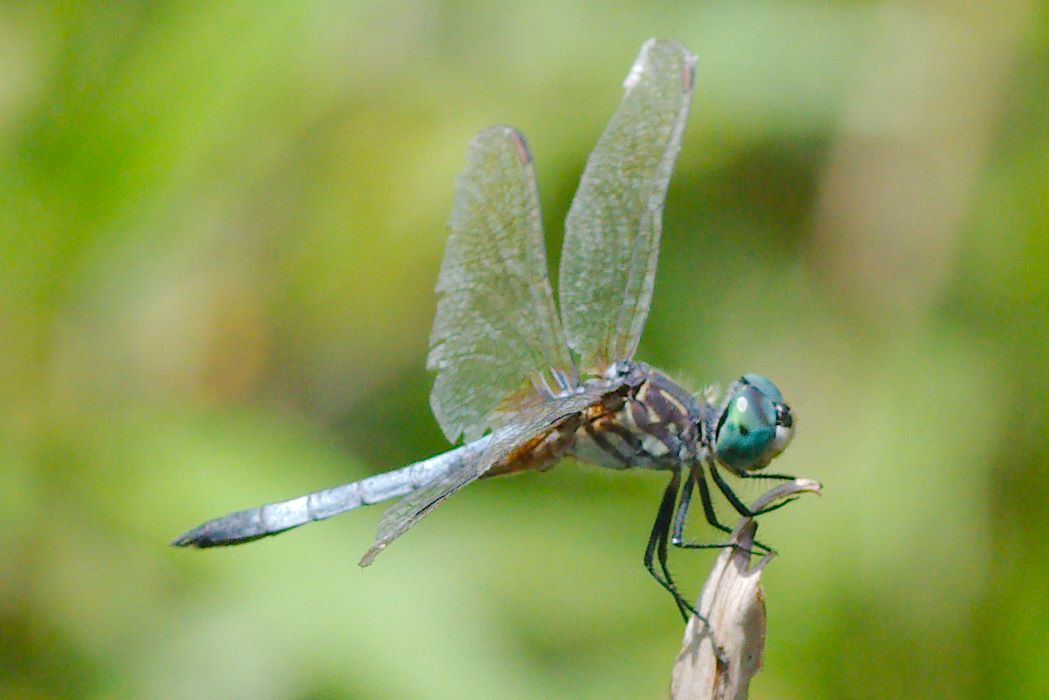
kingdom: Animalia
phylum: Arthropoda
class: Insecta
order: Odonata
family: Libellulidae
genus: Pachydiplax
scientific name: Pachydiplax longipennis
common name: Blue dasher
